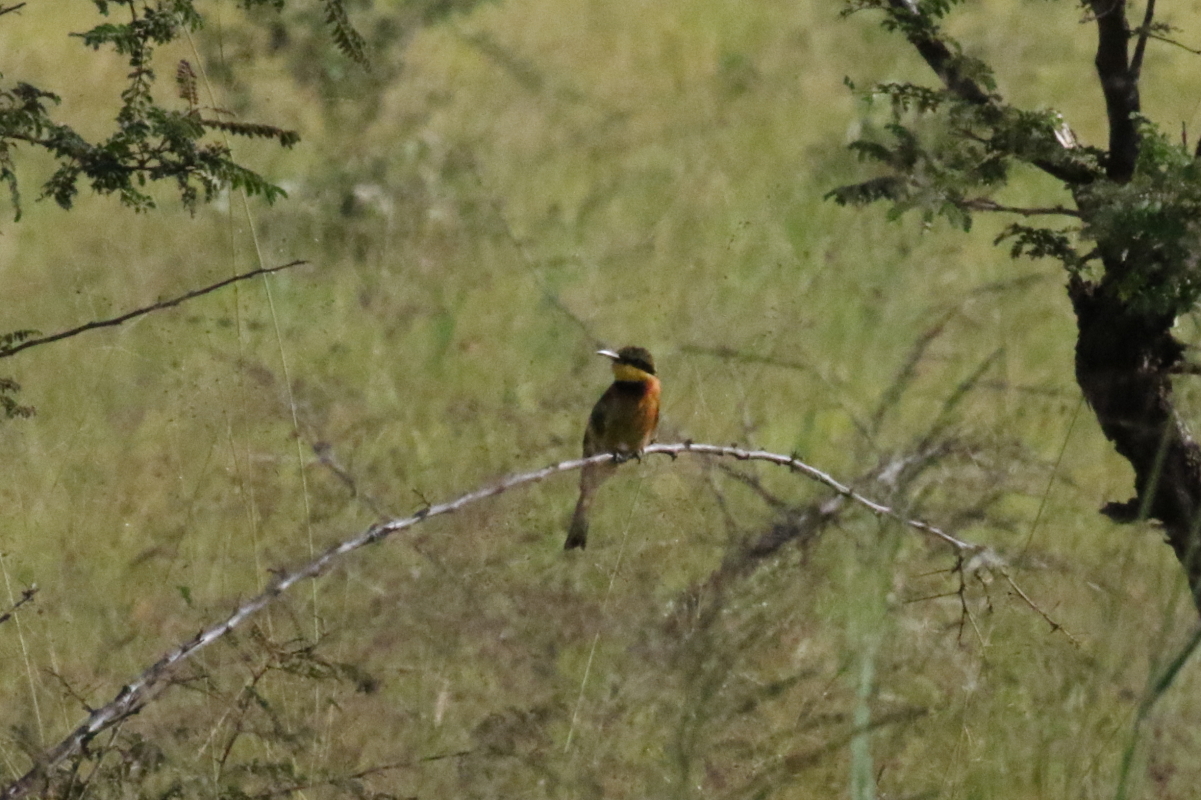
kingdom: Animalia
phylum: Chordata
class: Aves
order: Coraciiformes
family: Meropidae
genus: Merops
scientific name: Merops pusillus
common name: Little bee-eater
